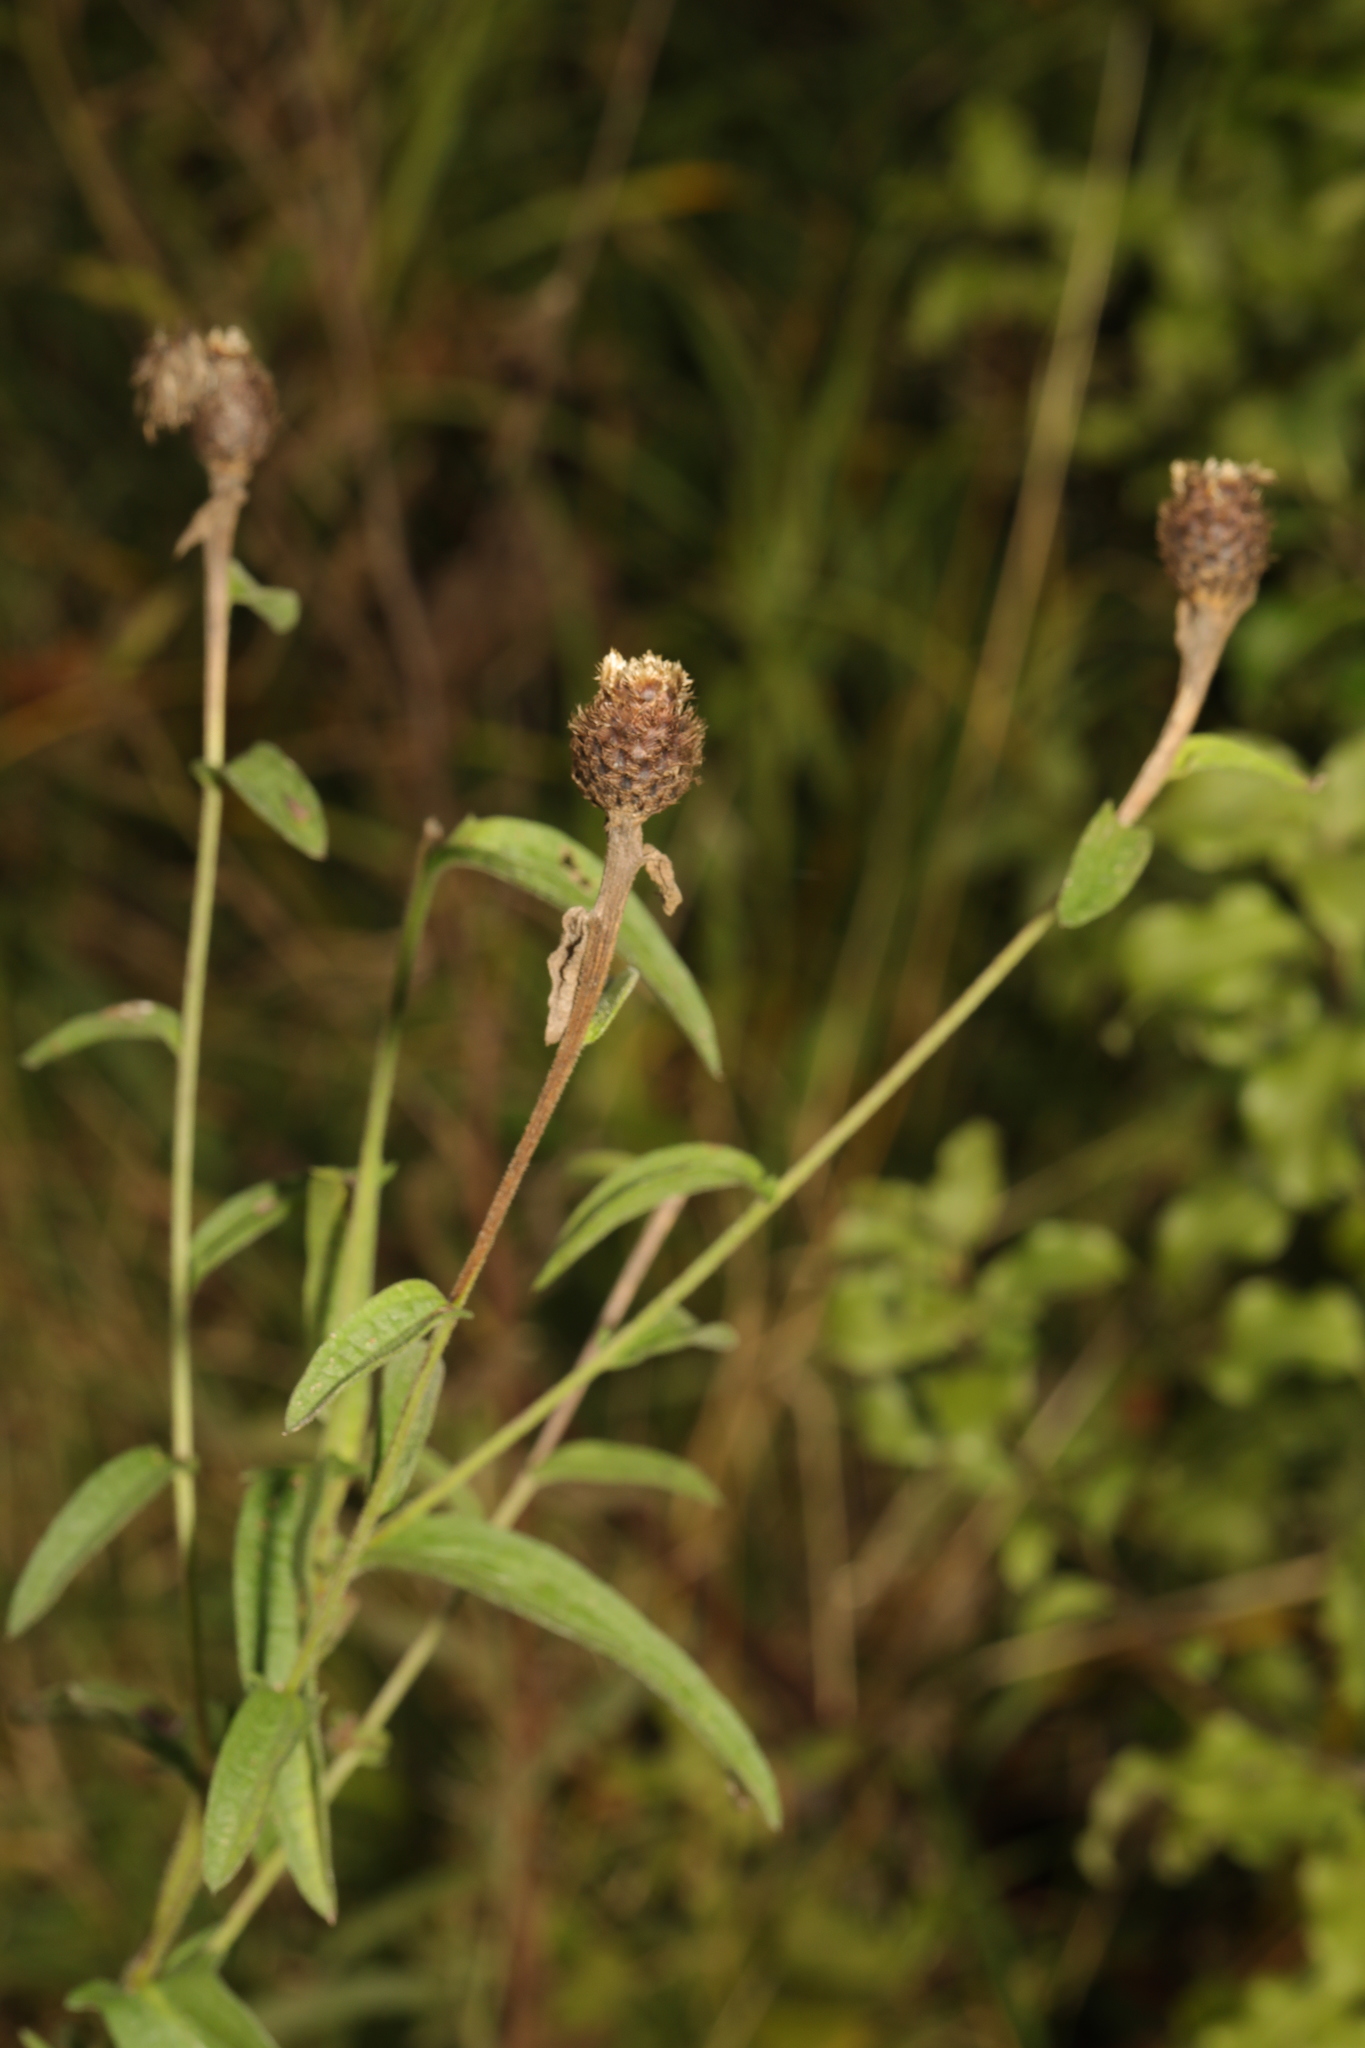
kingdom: Plantae
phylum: Tracheophyta
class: Magnoliopsida
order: Asterales
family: Asteraceae
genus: Centaurea
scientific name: Centaurea nigra
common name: Lesser knapweed
